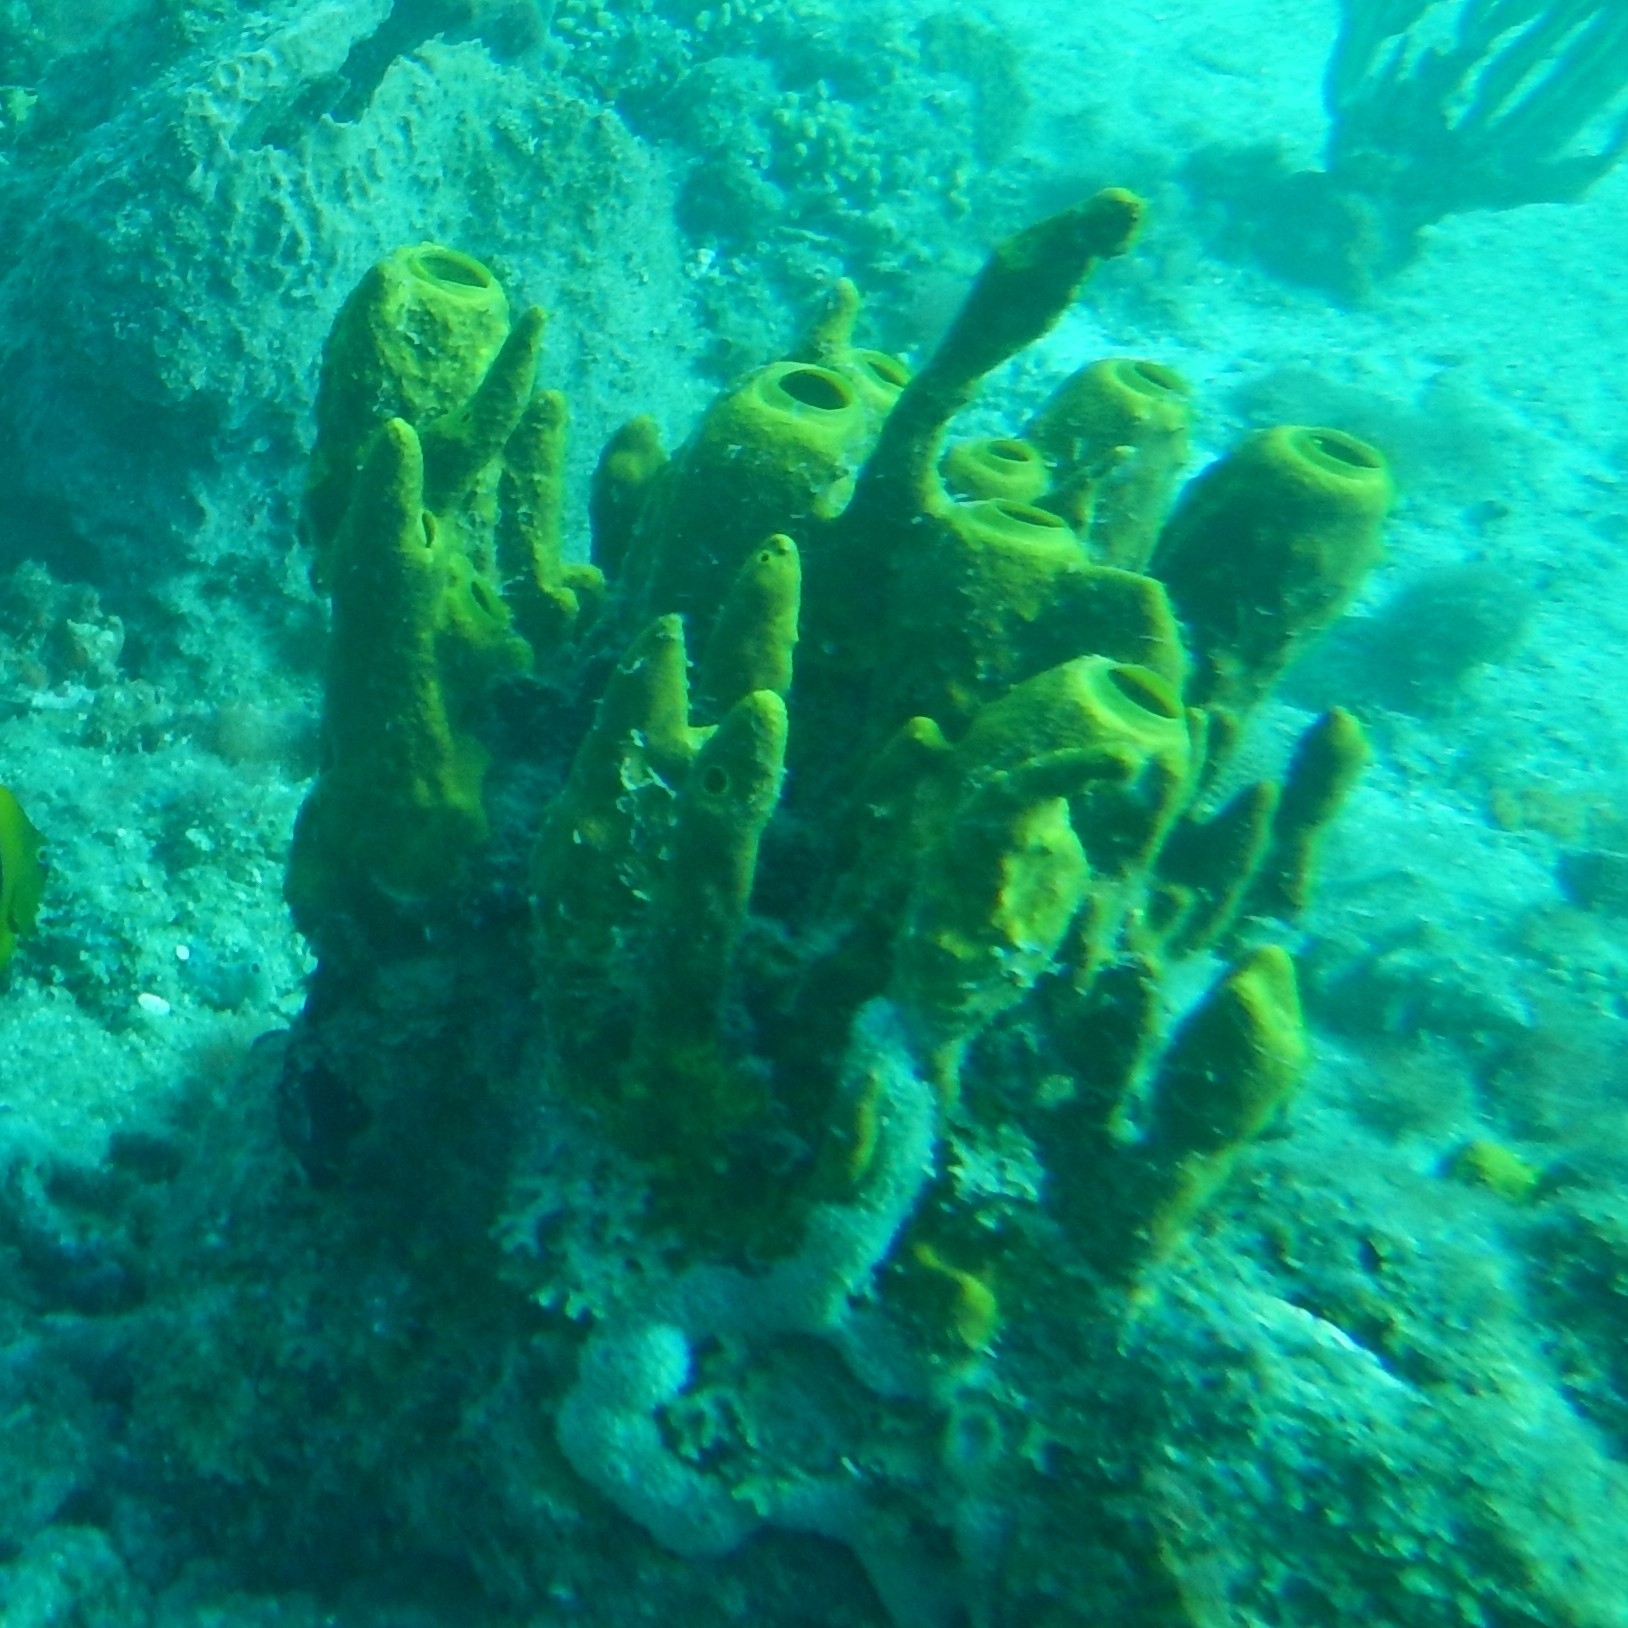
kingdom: Animalia
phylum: Porifera
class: Demospongiae
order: Verongiida
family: Aplysinidae
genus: Aplysina
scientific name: Aplysina fistularis
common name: Candle sponge
